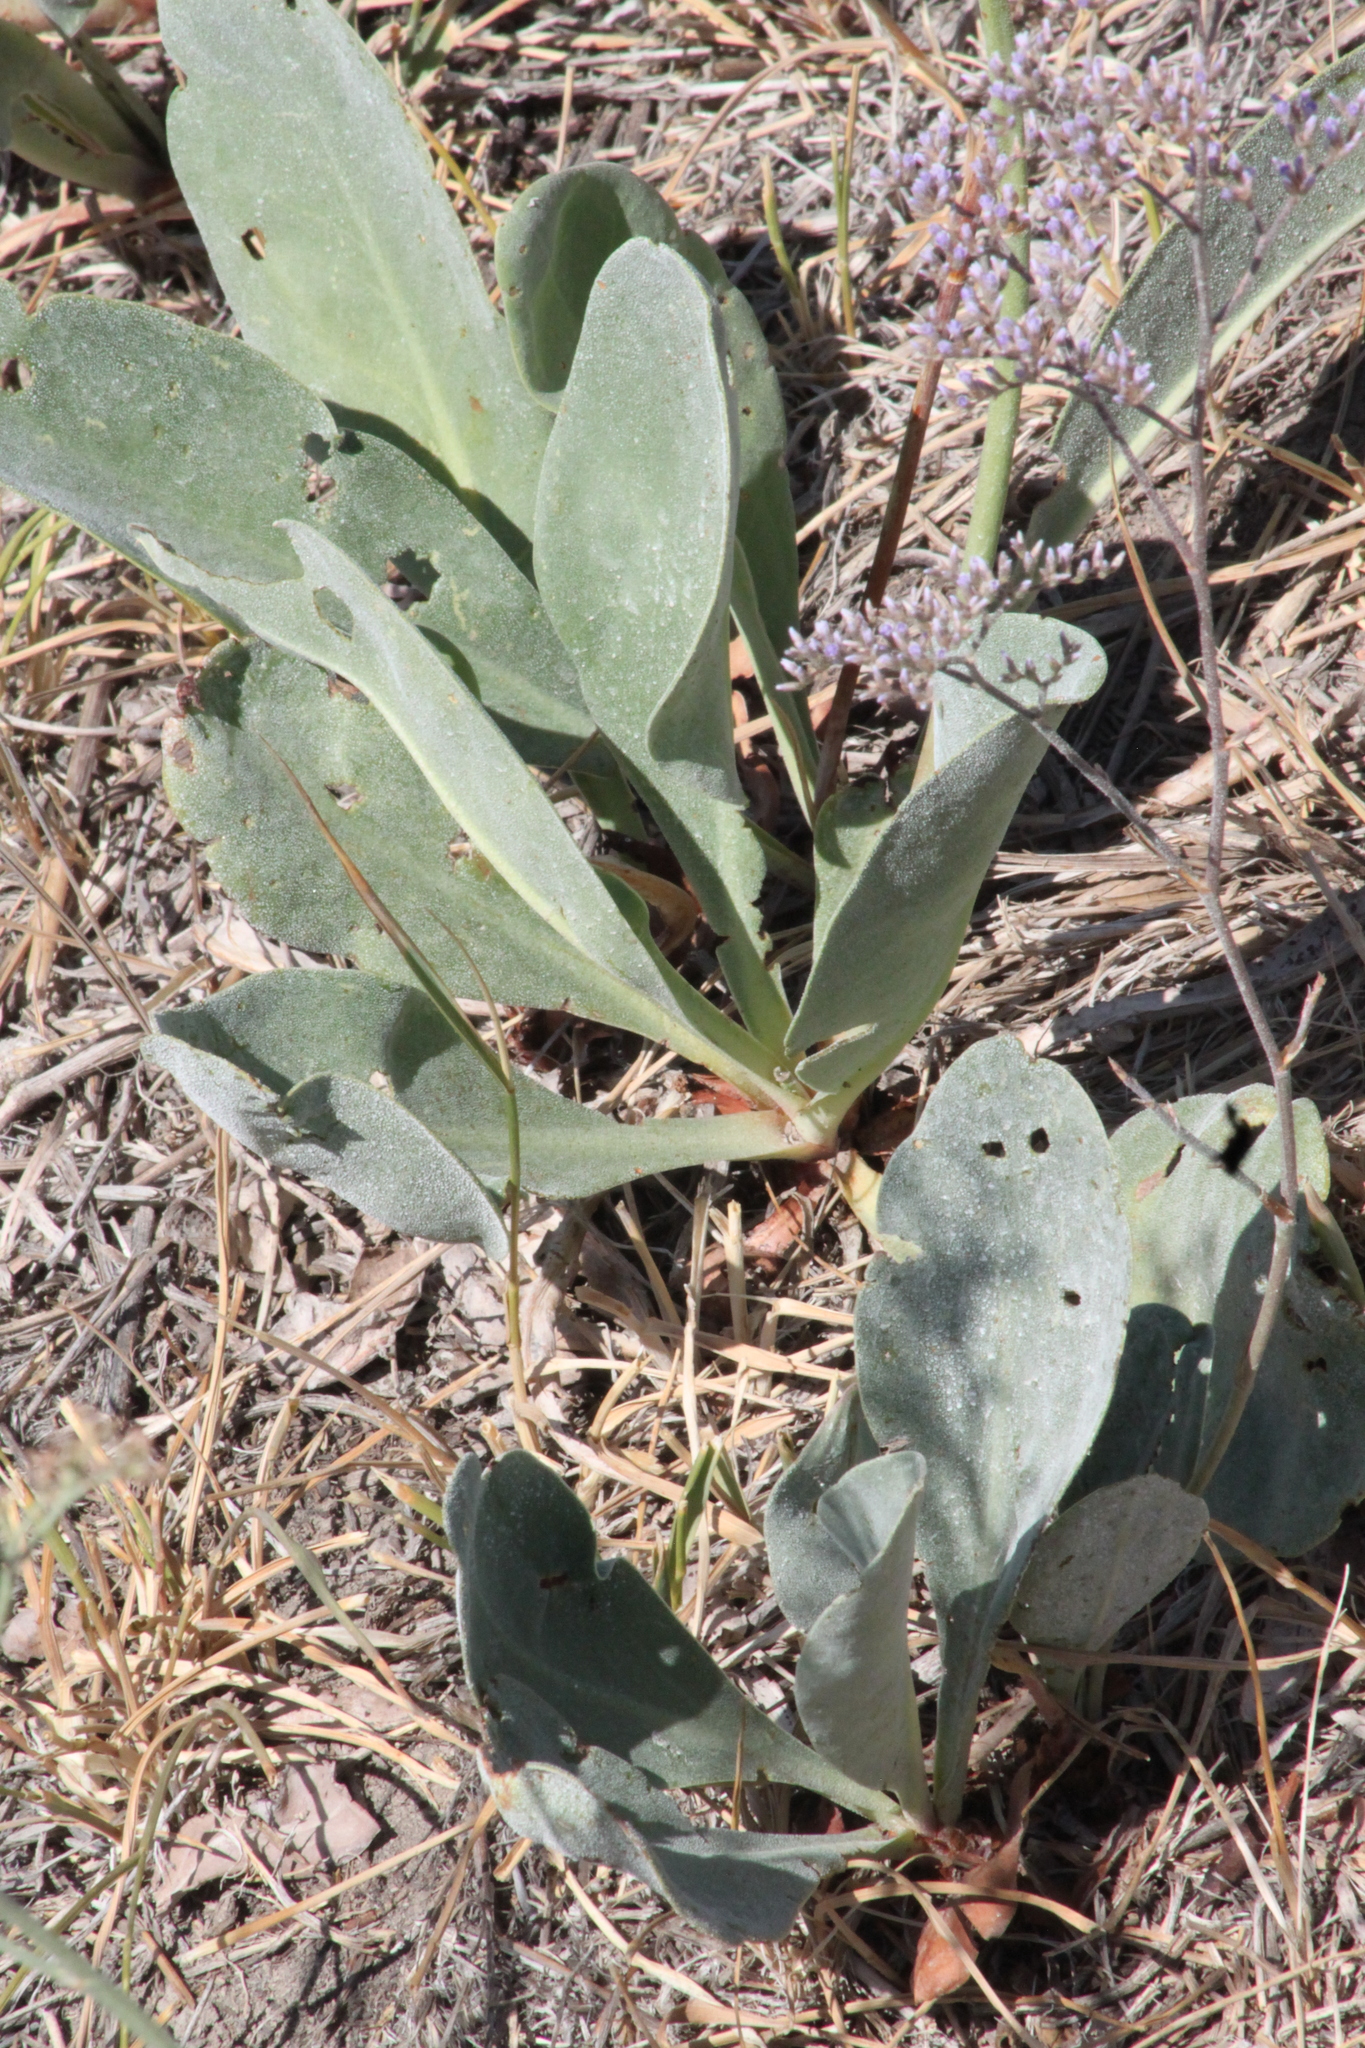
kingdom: Plantae
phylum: Tracheophyta
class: Magnoliopsida
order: Caryophyllales
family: Plumbaginaceae
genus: Limonium
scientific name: Limonium gmelini
